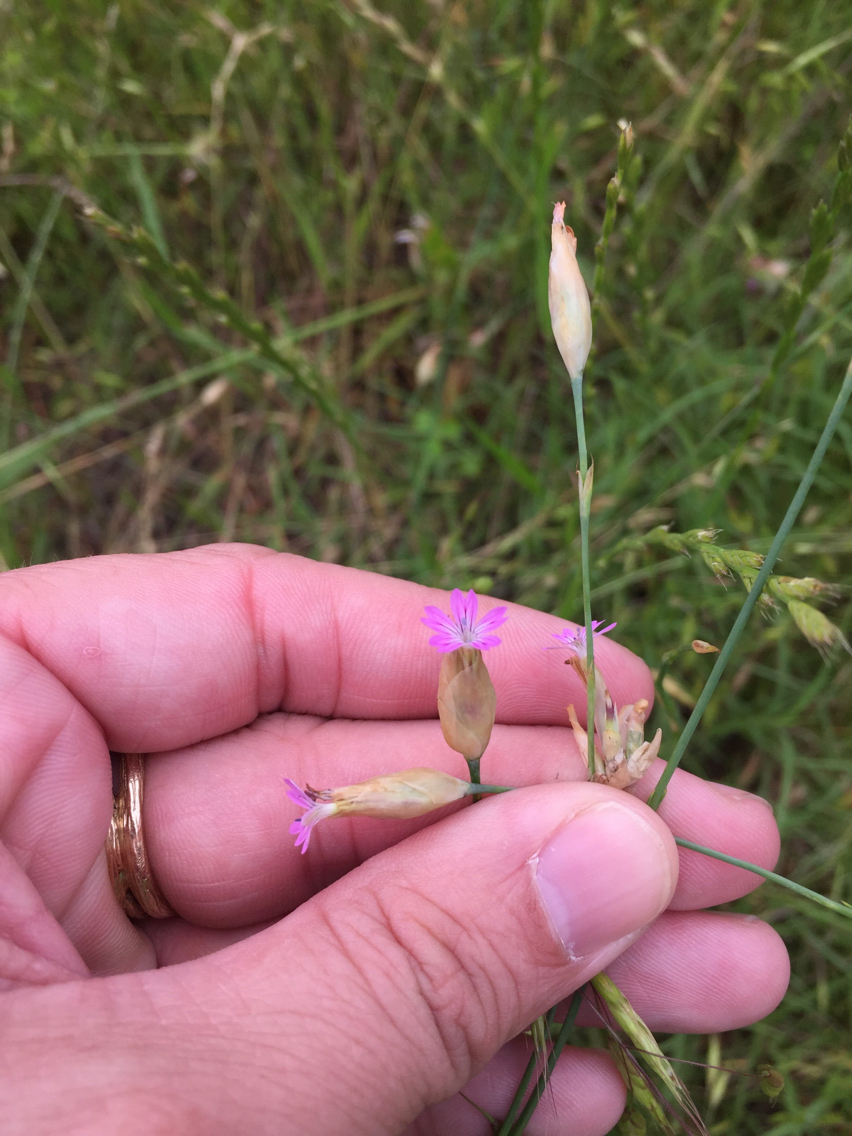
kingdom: Plantae
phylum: Tracheophyta
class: Magnoliopsida
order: Caryophyllales
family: Caryophyllaceae
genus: Petrorhagia
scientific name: Petrorhagia dubia
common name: Hairypink
